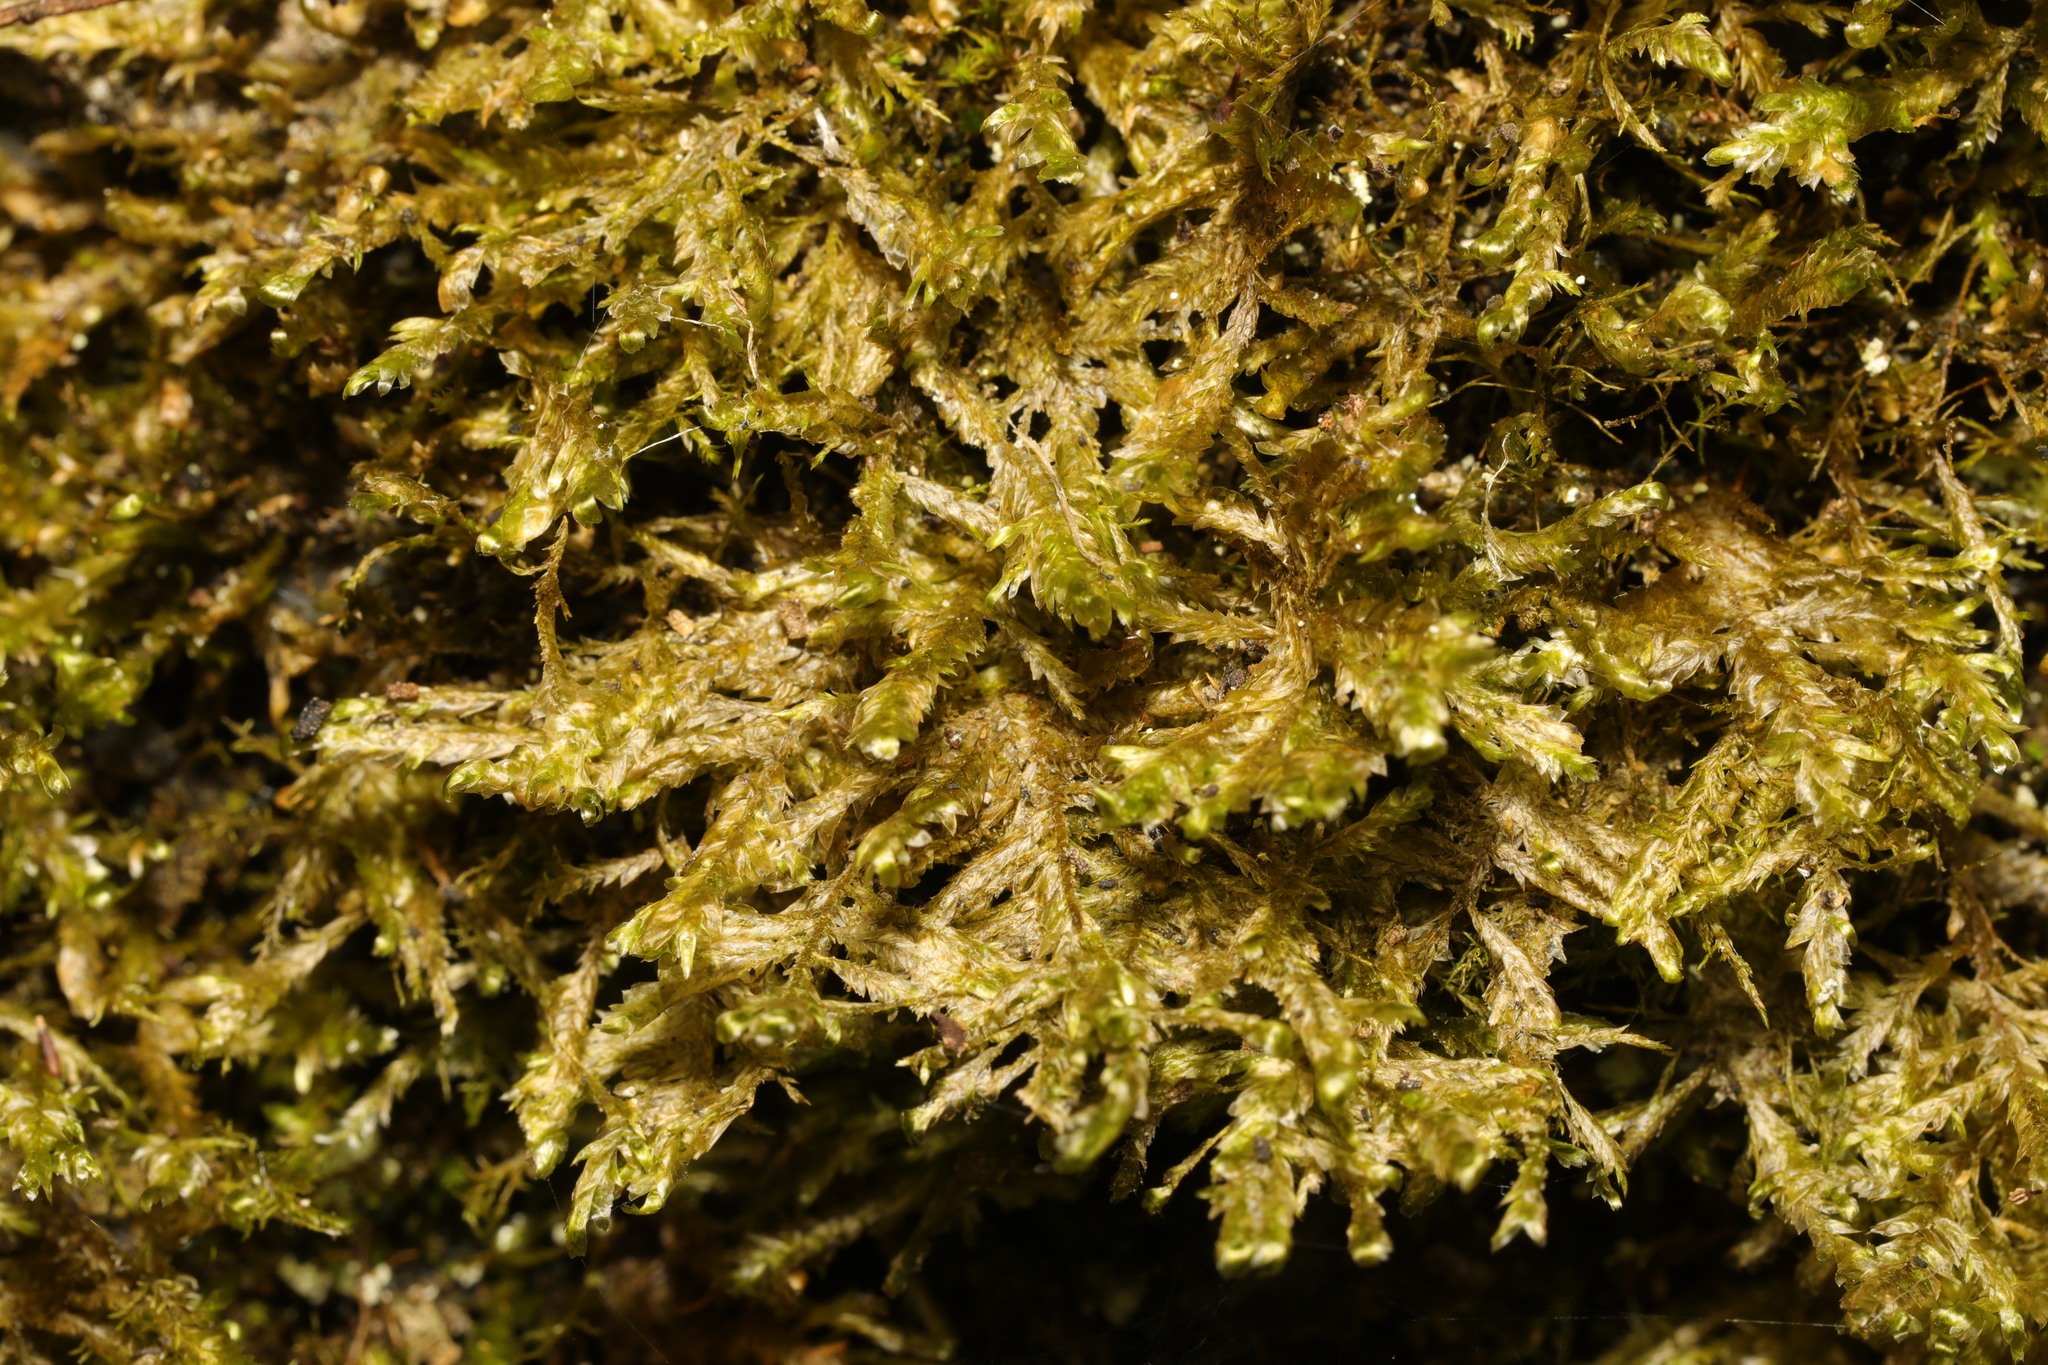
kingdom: Plantae
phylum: Bryophyta
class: Bryopsida
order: Hypnales
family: Neckeraceae
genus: Alleniella
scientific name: Alleniella complanata
